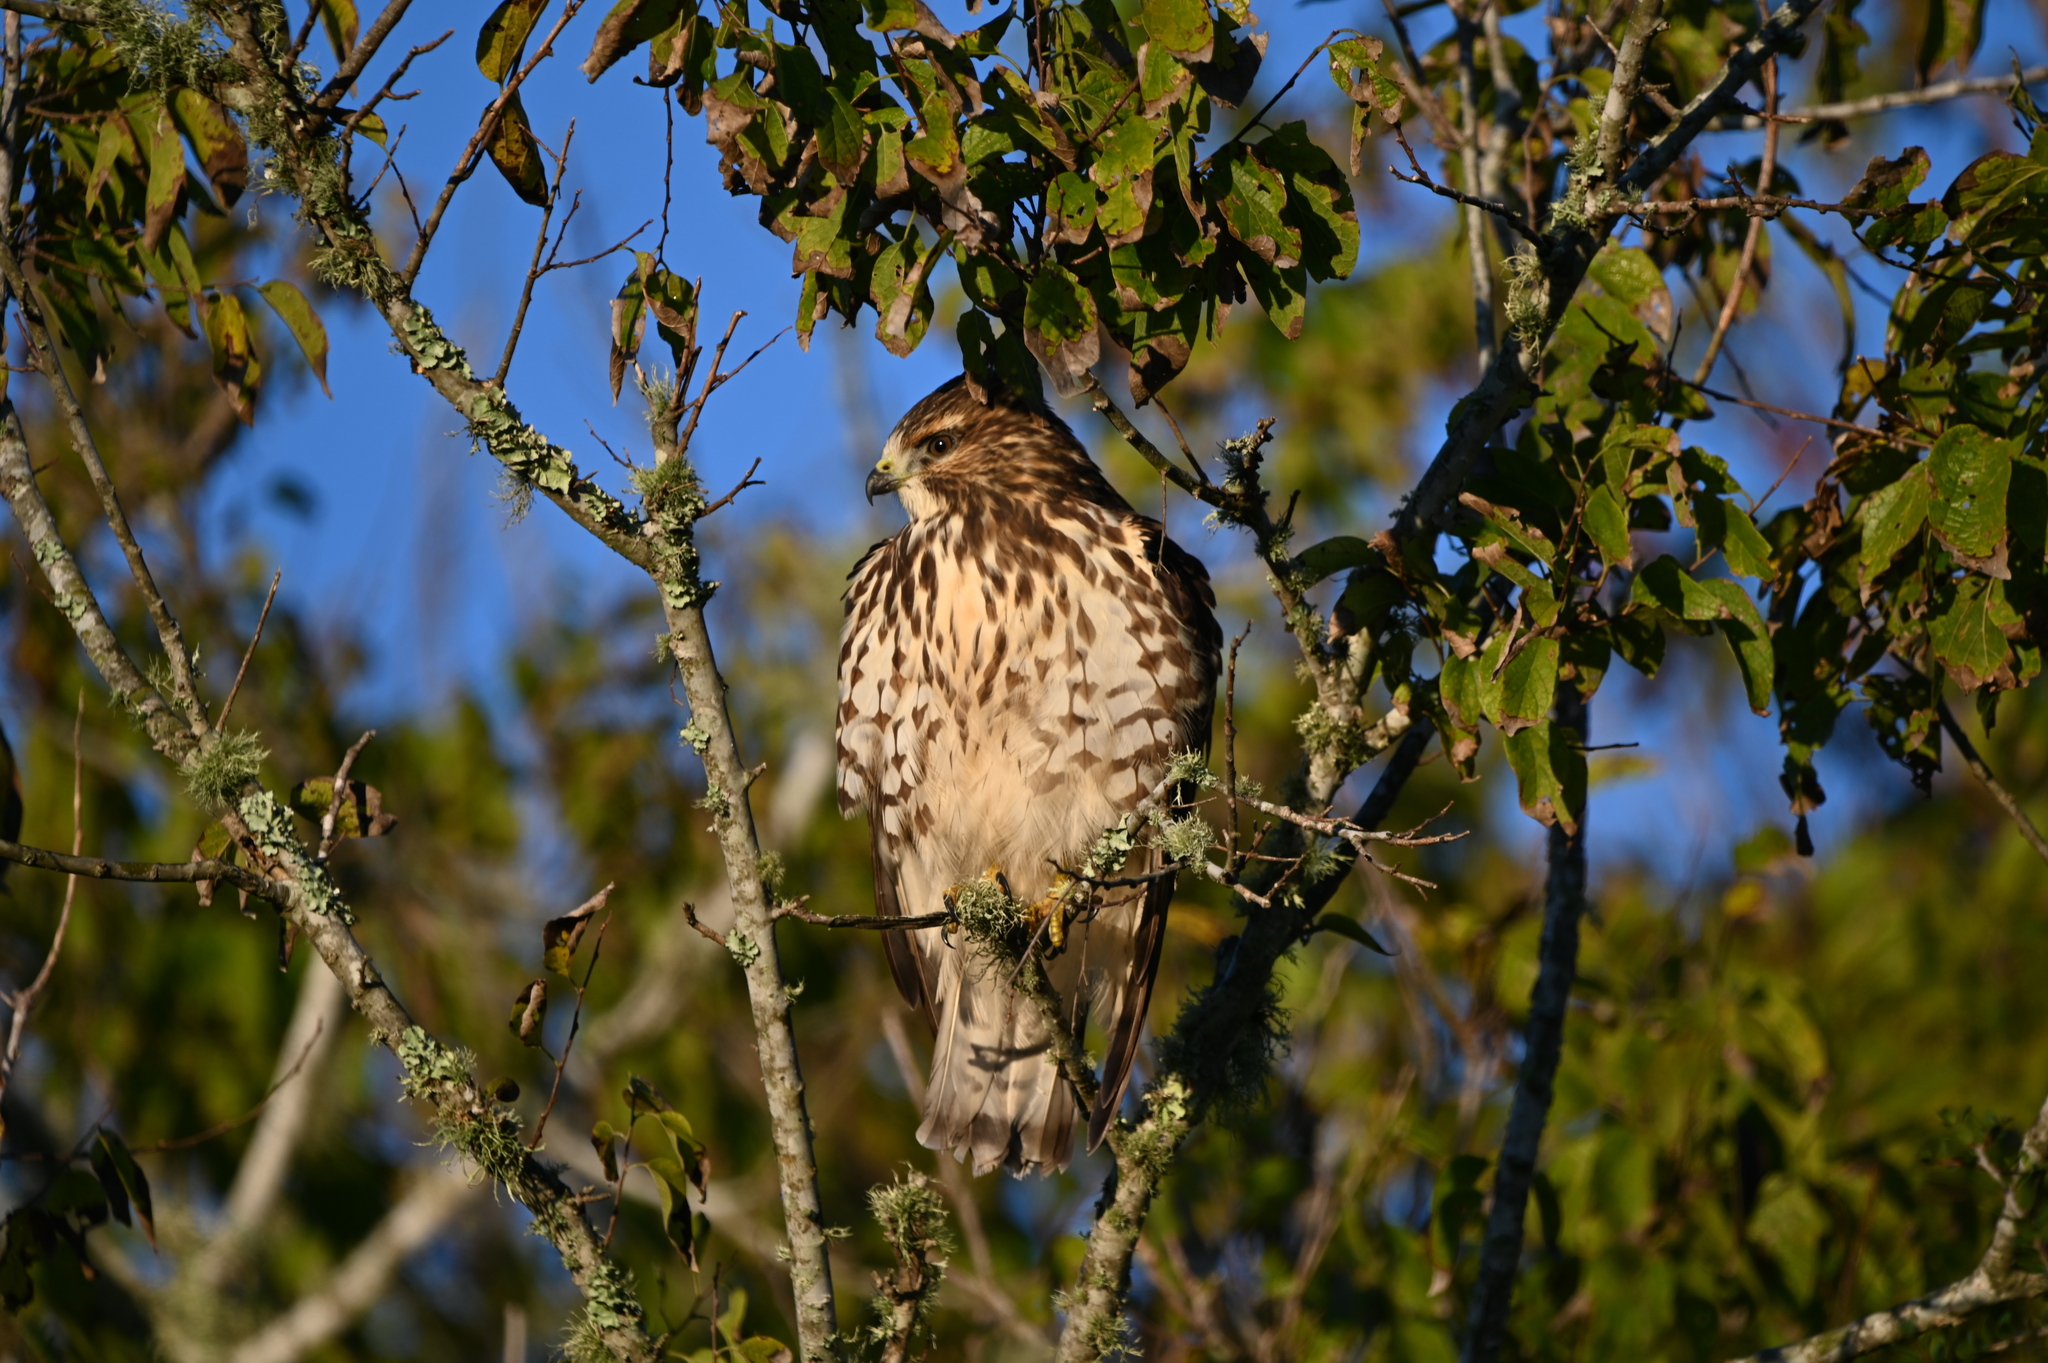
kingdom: Animalia
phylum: Chordata
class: Aves
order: Accipitriformes
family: Accipitridae
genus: Buteo
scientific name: Buteo platypterus
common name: Broad-winged hawk
